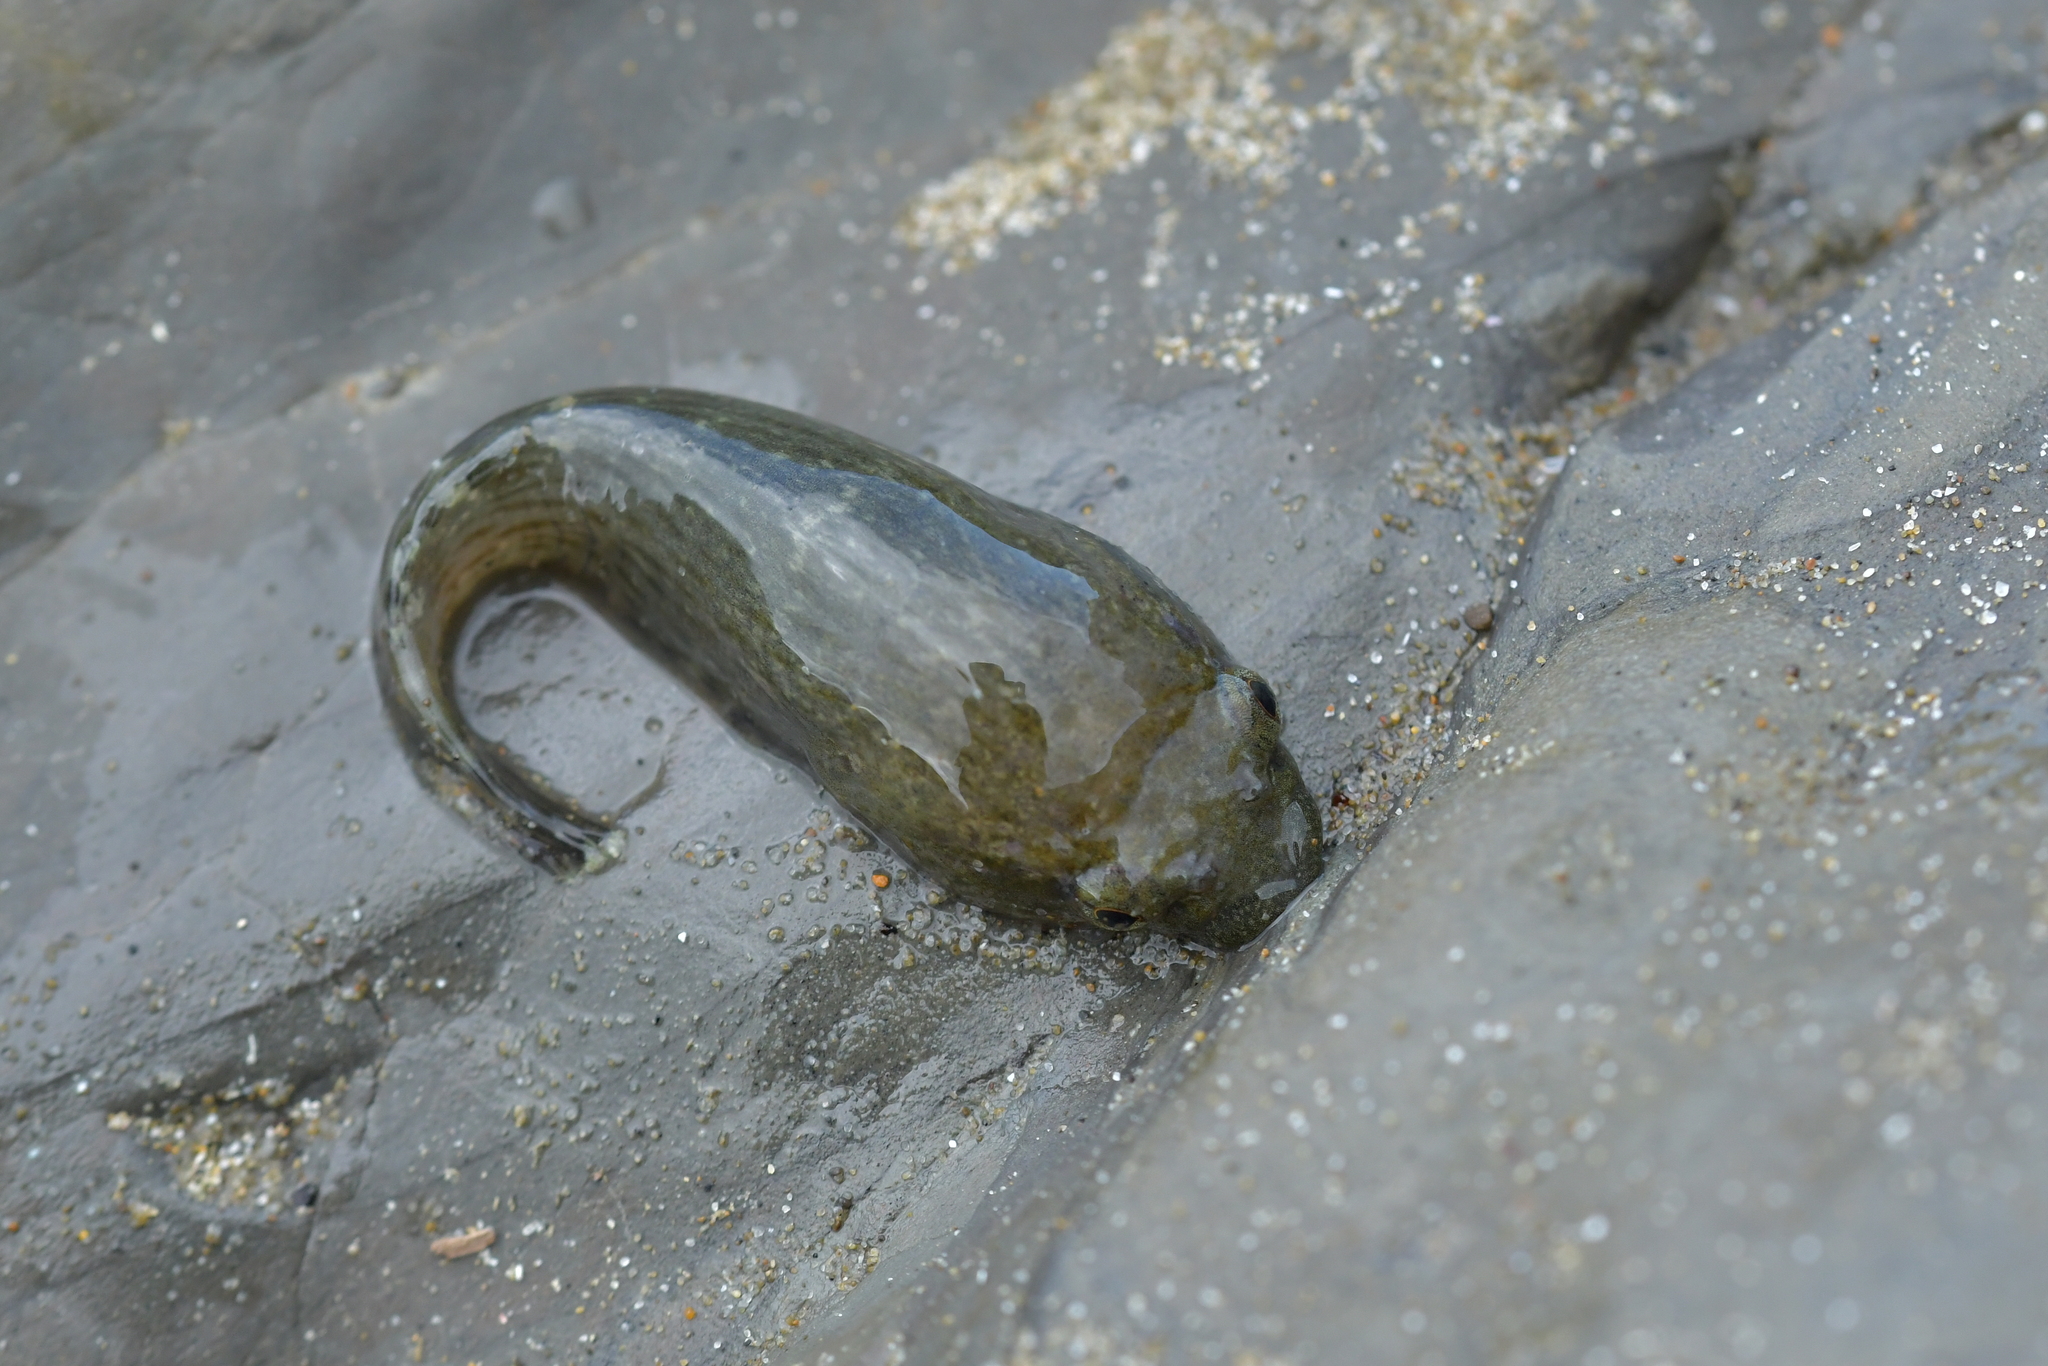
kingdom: Animalia
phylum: Chordata
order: Gobiesociformes
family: Gobiesocidae
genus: Trachelochismus
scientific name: Trachelochismus pinnulatus
